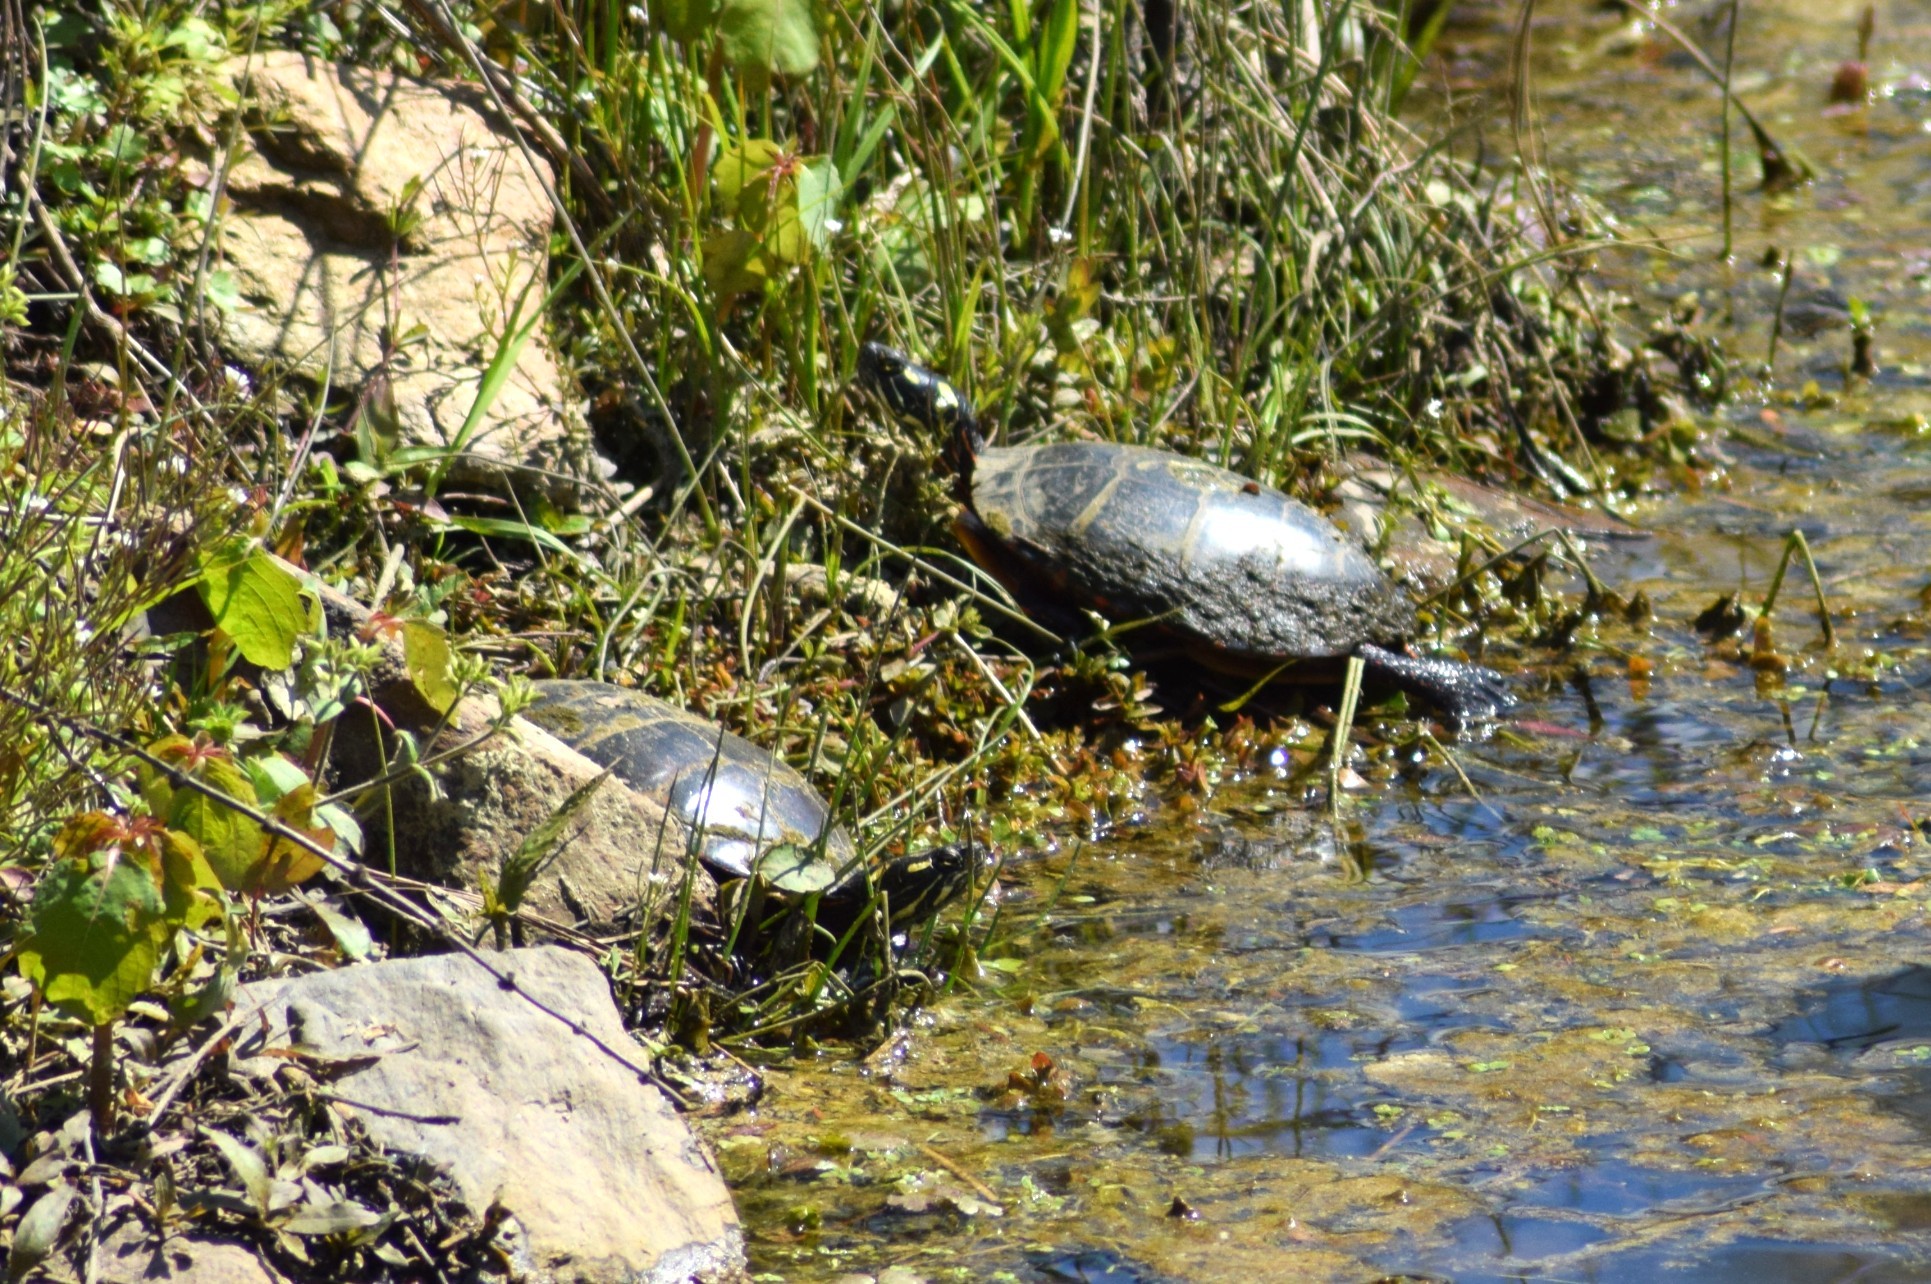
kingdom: Animalia
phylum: Chordata
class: Testudines
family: Emydidae
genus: Chrysemys
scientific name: Chrysemys picta
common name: Painted turtle
